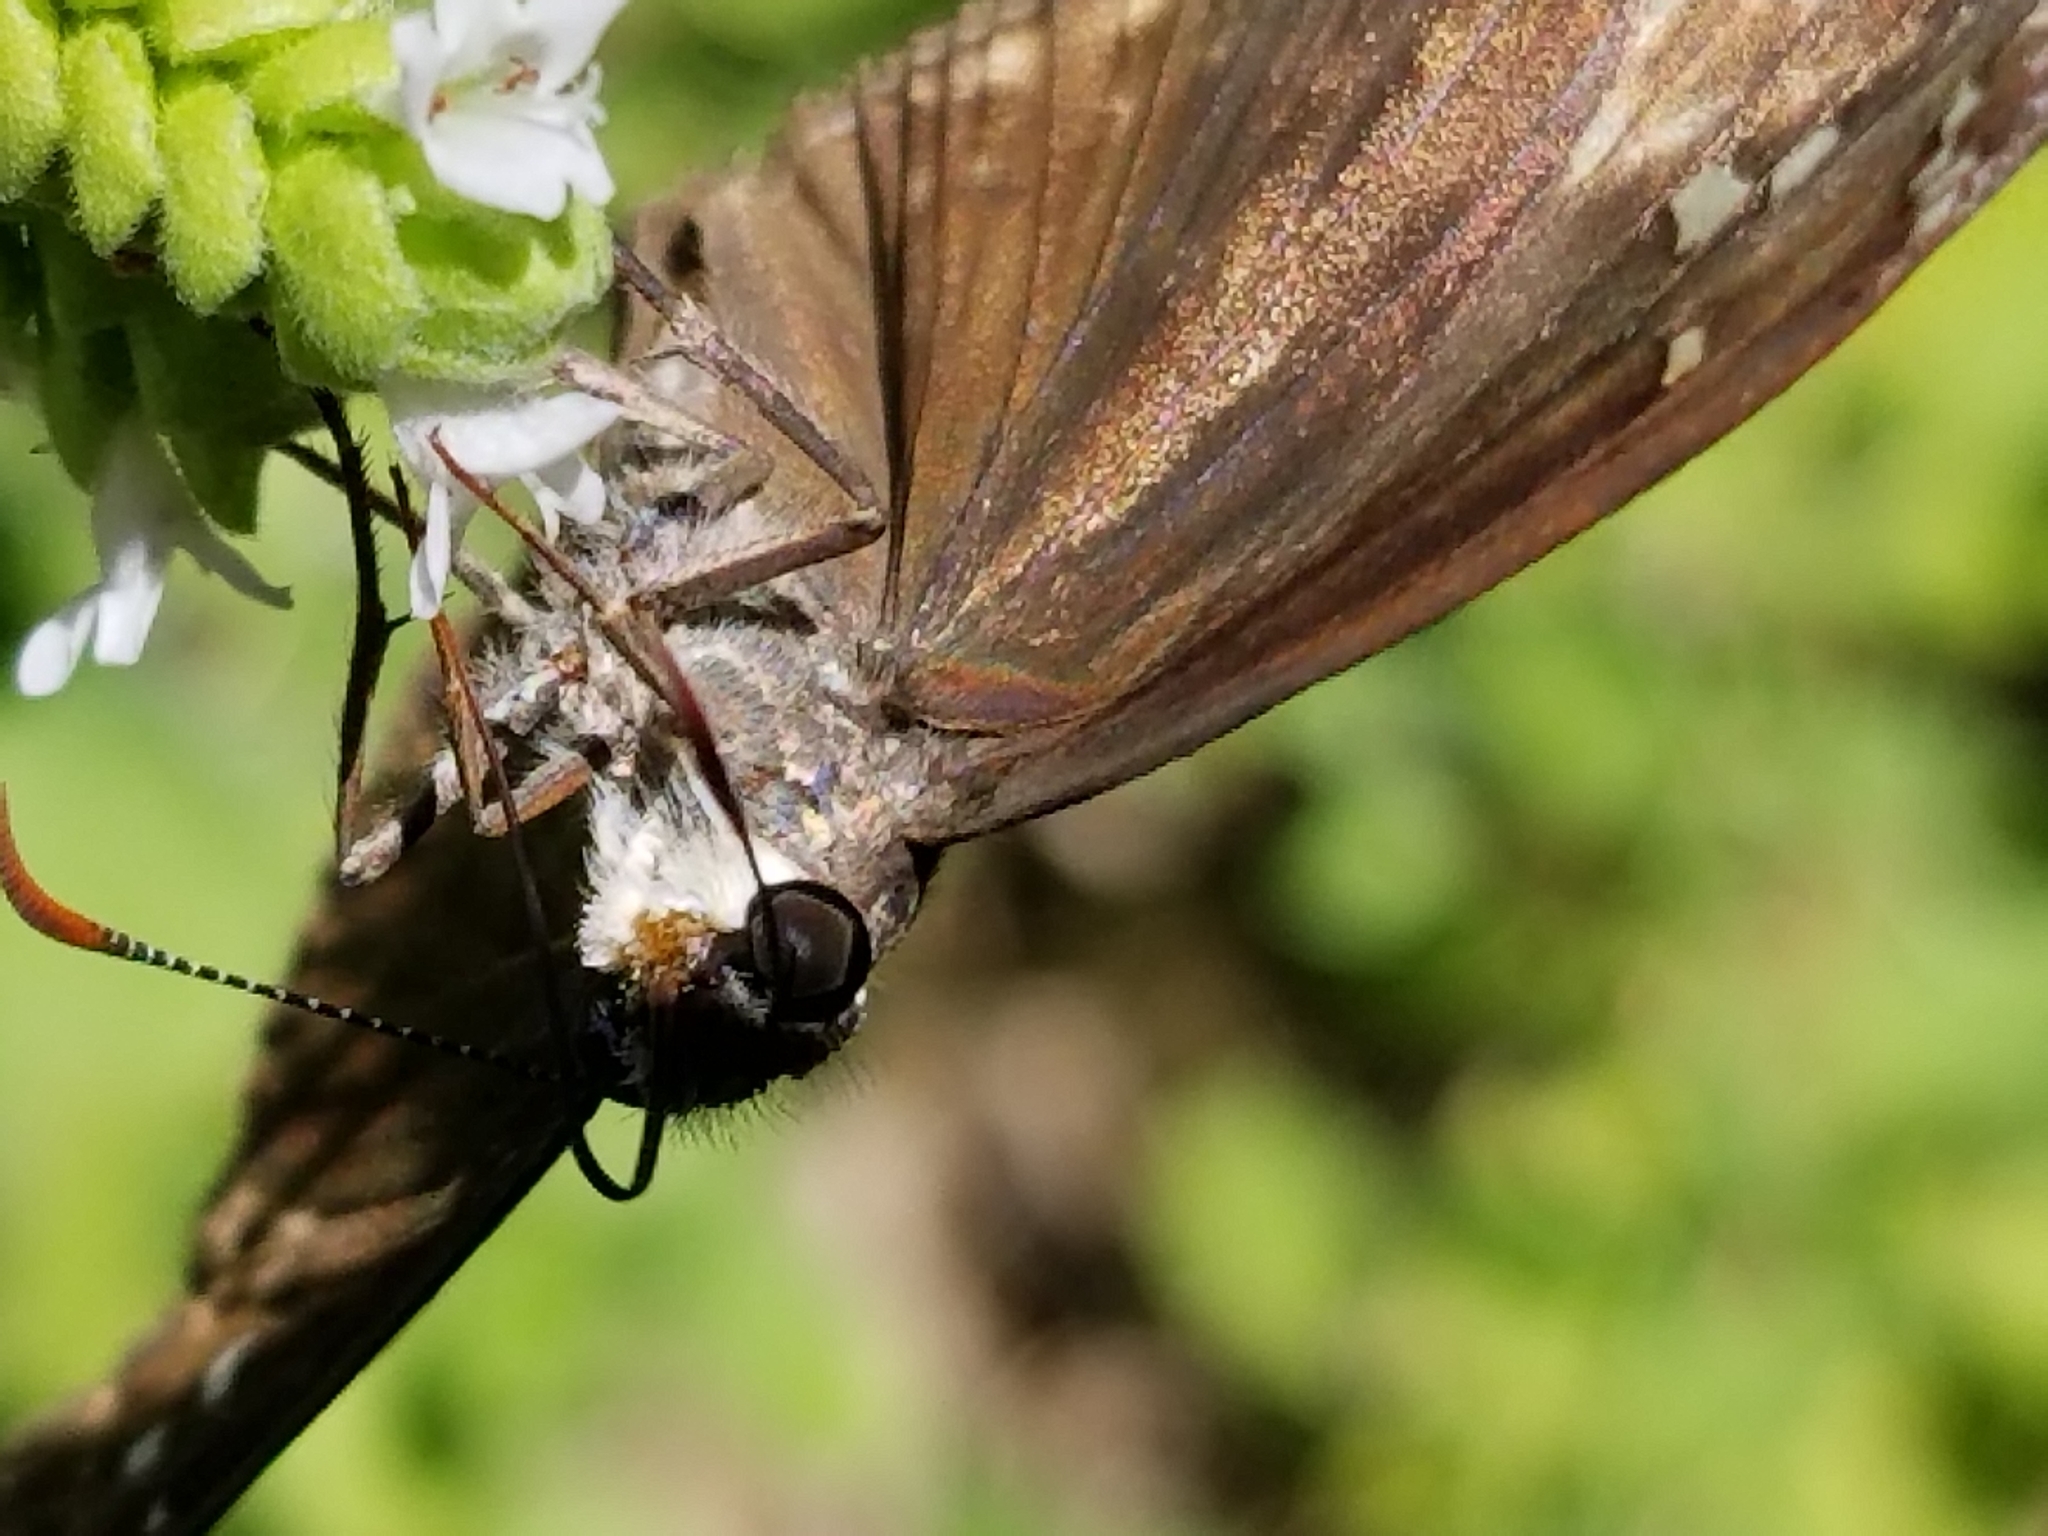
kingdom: Animalia
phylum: Arthropoda
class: Insecta
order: Lepidoptera
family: Hesperiidae
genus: Erynnis
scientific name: Erynnis horatius
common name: Horace's duskywing
